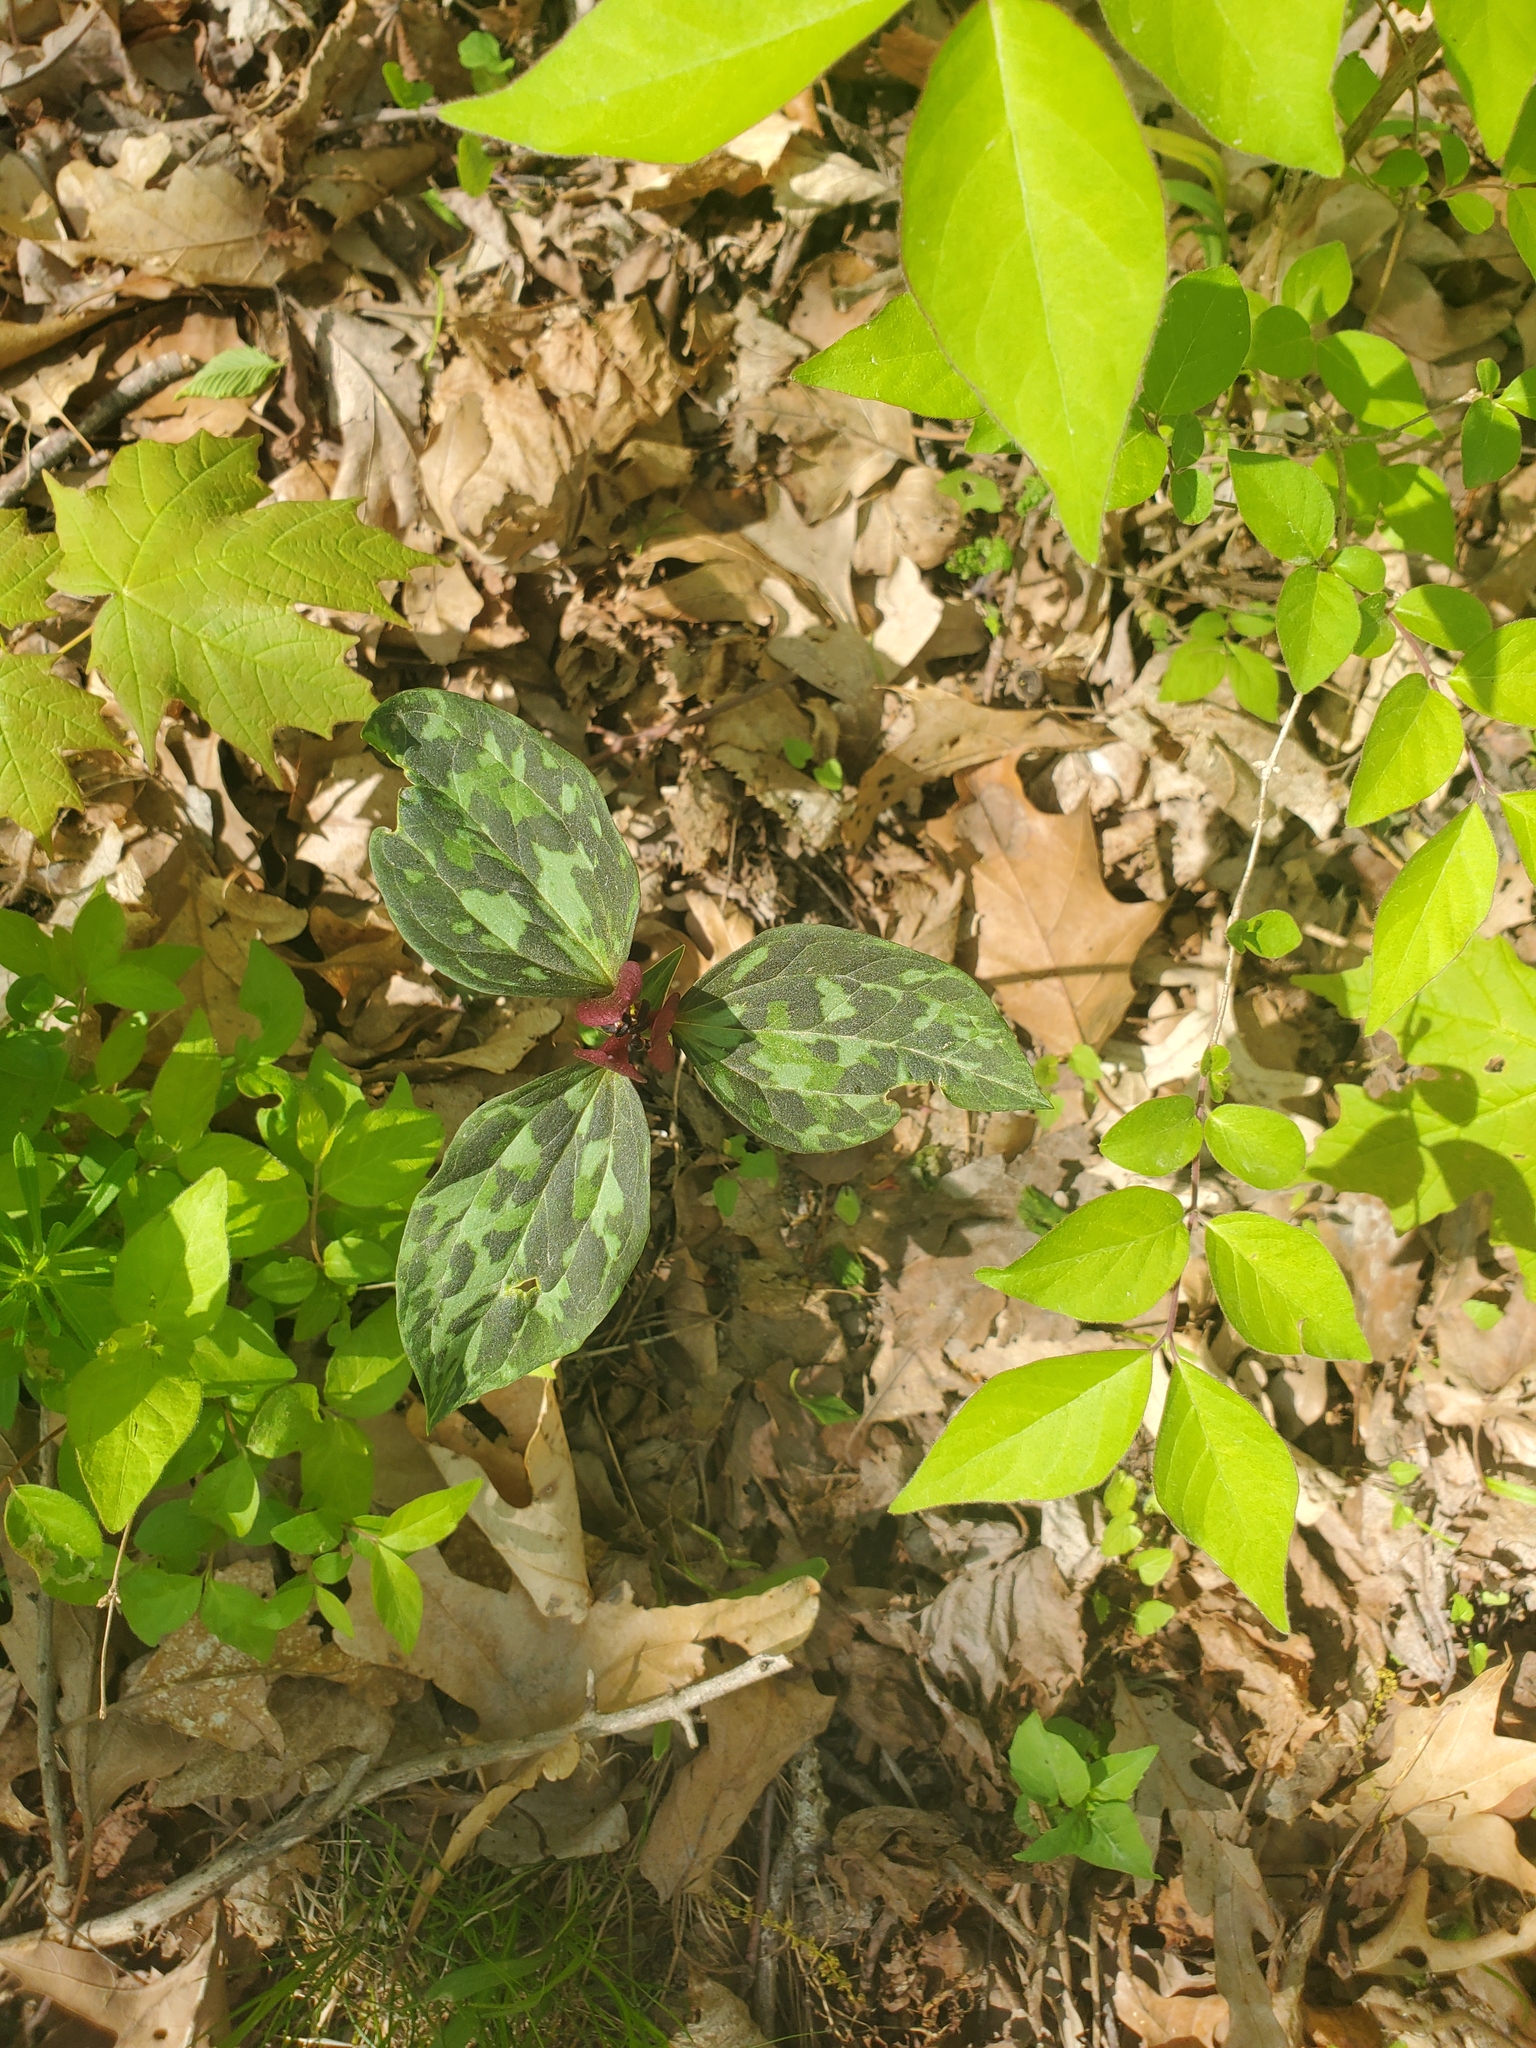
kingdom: Plantae
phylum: Tracheophyta
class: Liliopsida
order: Liliales
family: Melanthiaceae
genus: Trillium
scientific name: Trillium recurvatum
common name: Bloody butcher
